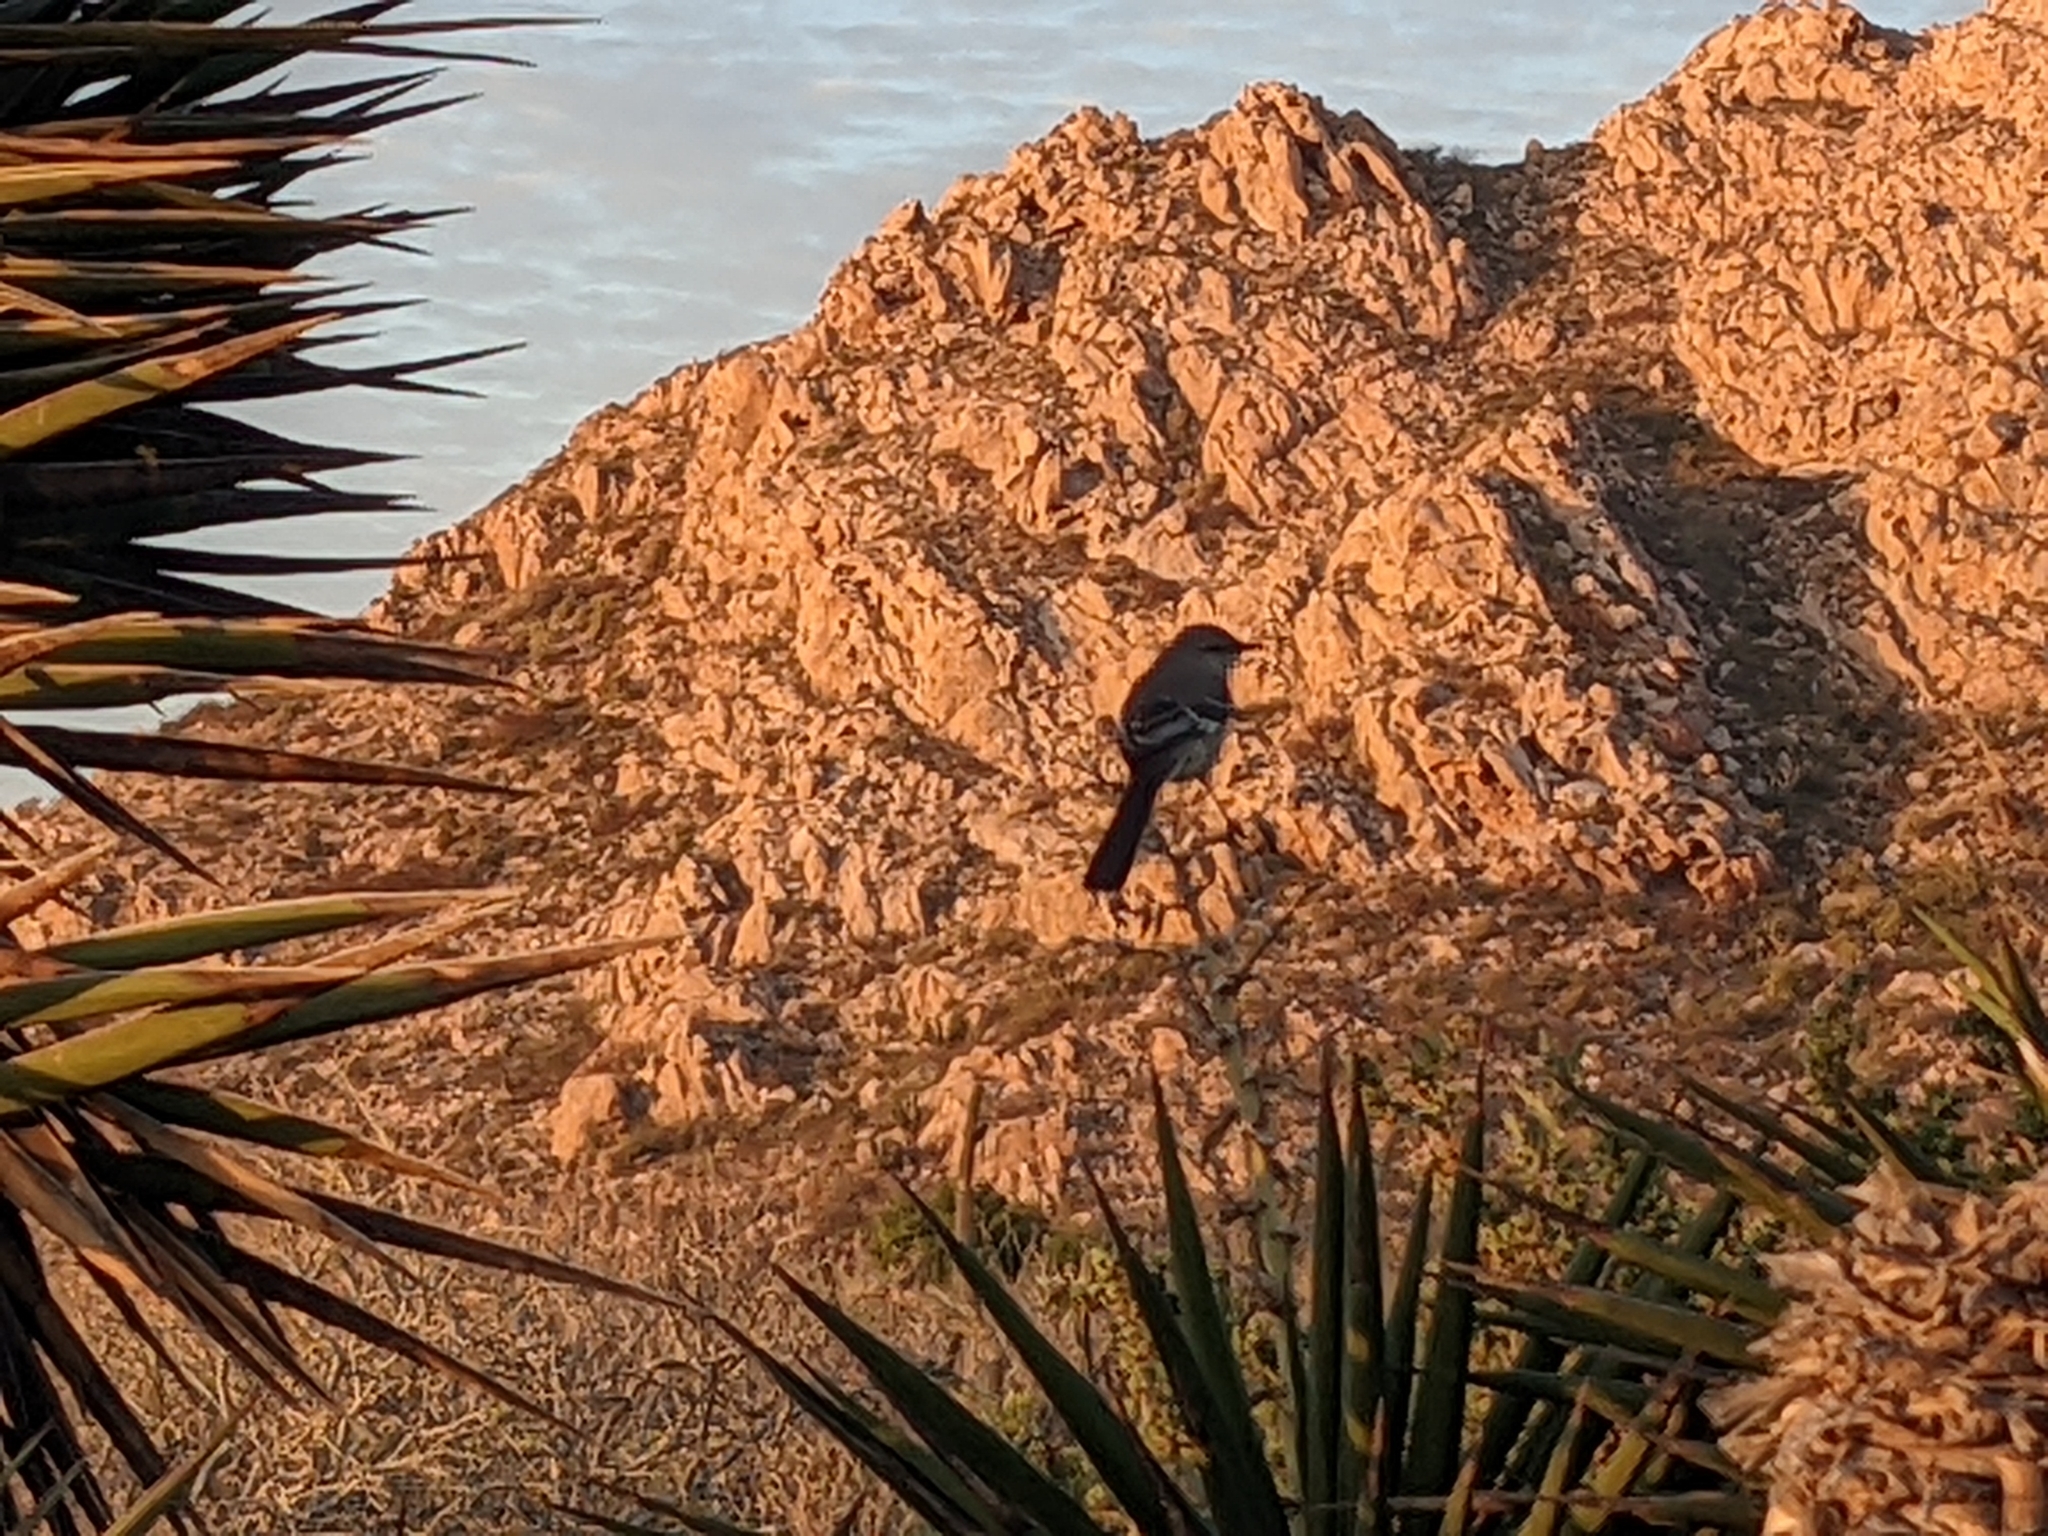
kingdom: Animalia
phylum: Chordata
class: Aves
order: Passeriformes
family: Mimidae
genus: Mimus
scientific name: Mimus polyglottos
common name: Northern mockingbird
